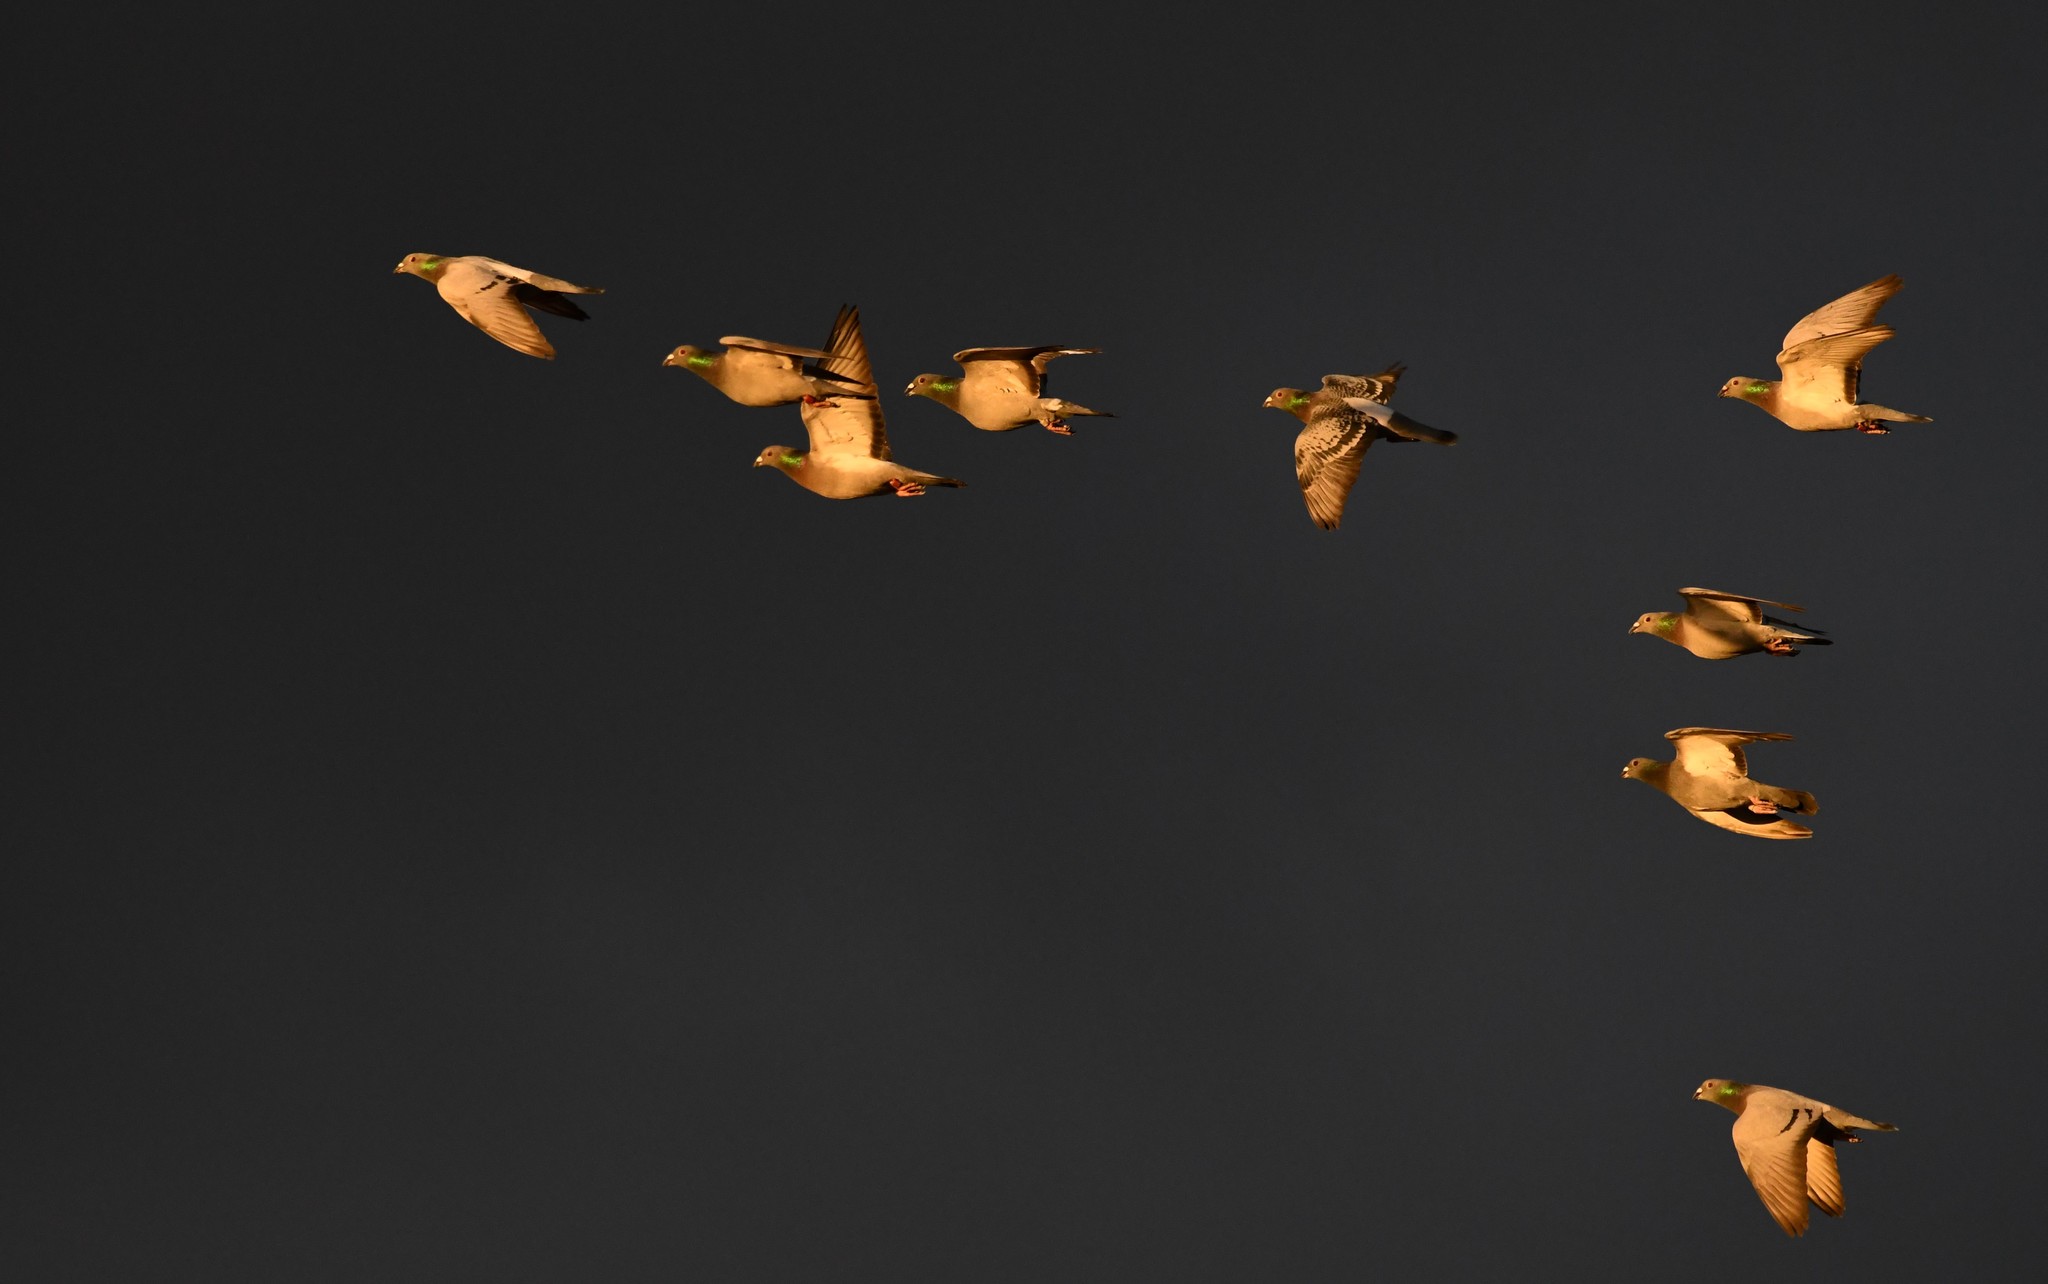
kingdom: Animalia
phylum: Chordata
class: Aves
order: Columbiformes
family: Columbidae
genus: Columba
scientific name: Columba livia
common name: Rock pigeon
